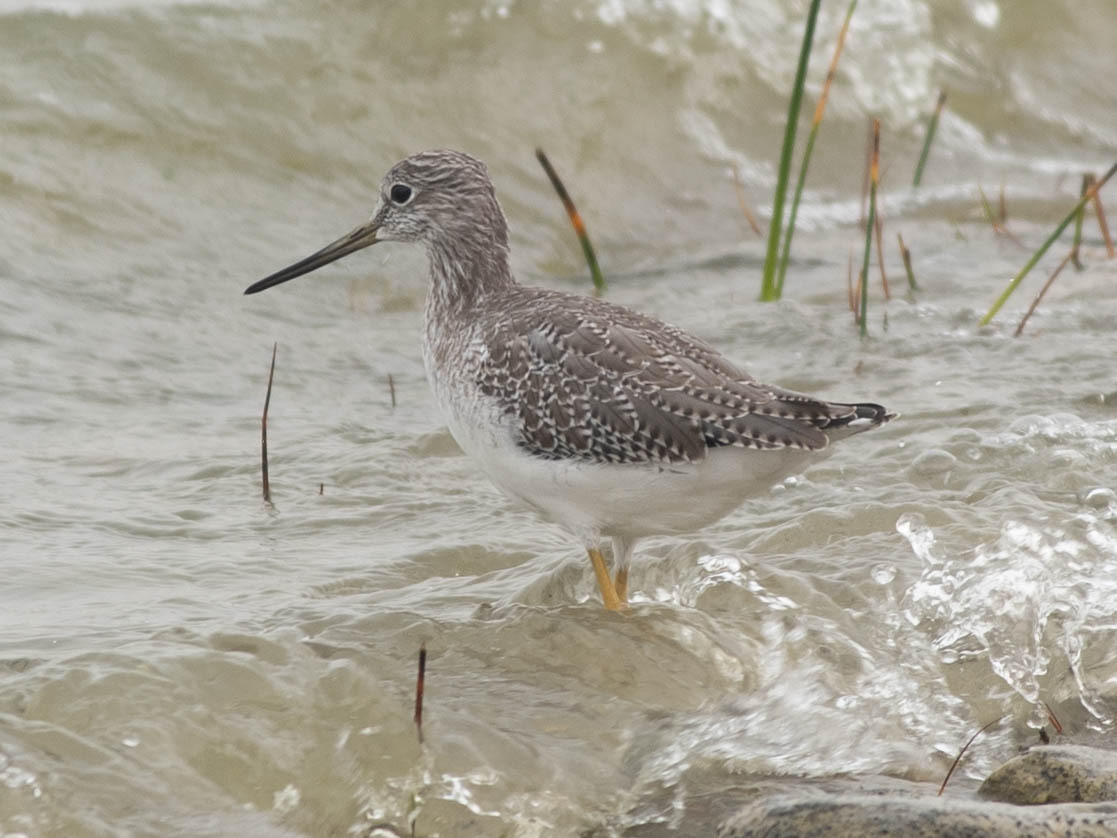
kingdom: Animalia
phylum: Chordata
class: Aves
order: Charadriiformes
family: Scolopacidae
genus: Tringa
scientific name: Tringa melanoleuca
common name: Greater yellowlegs
